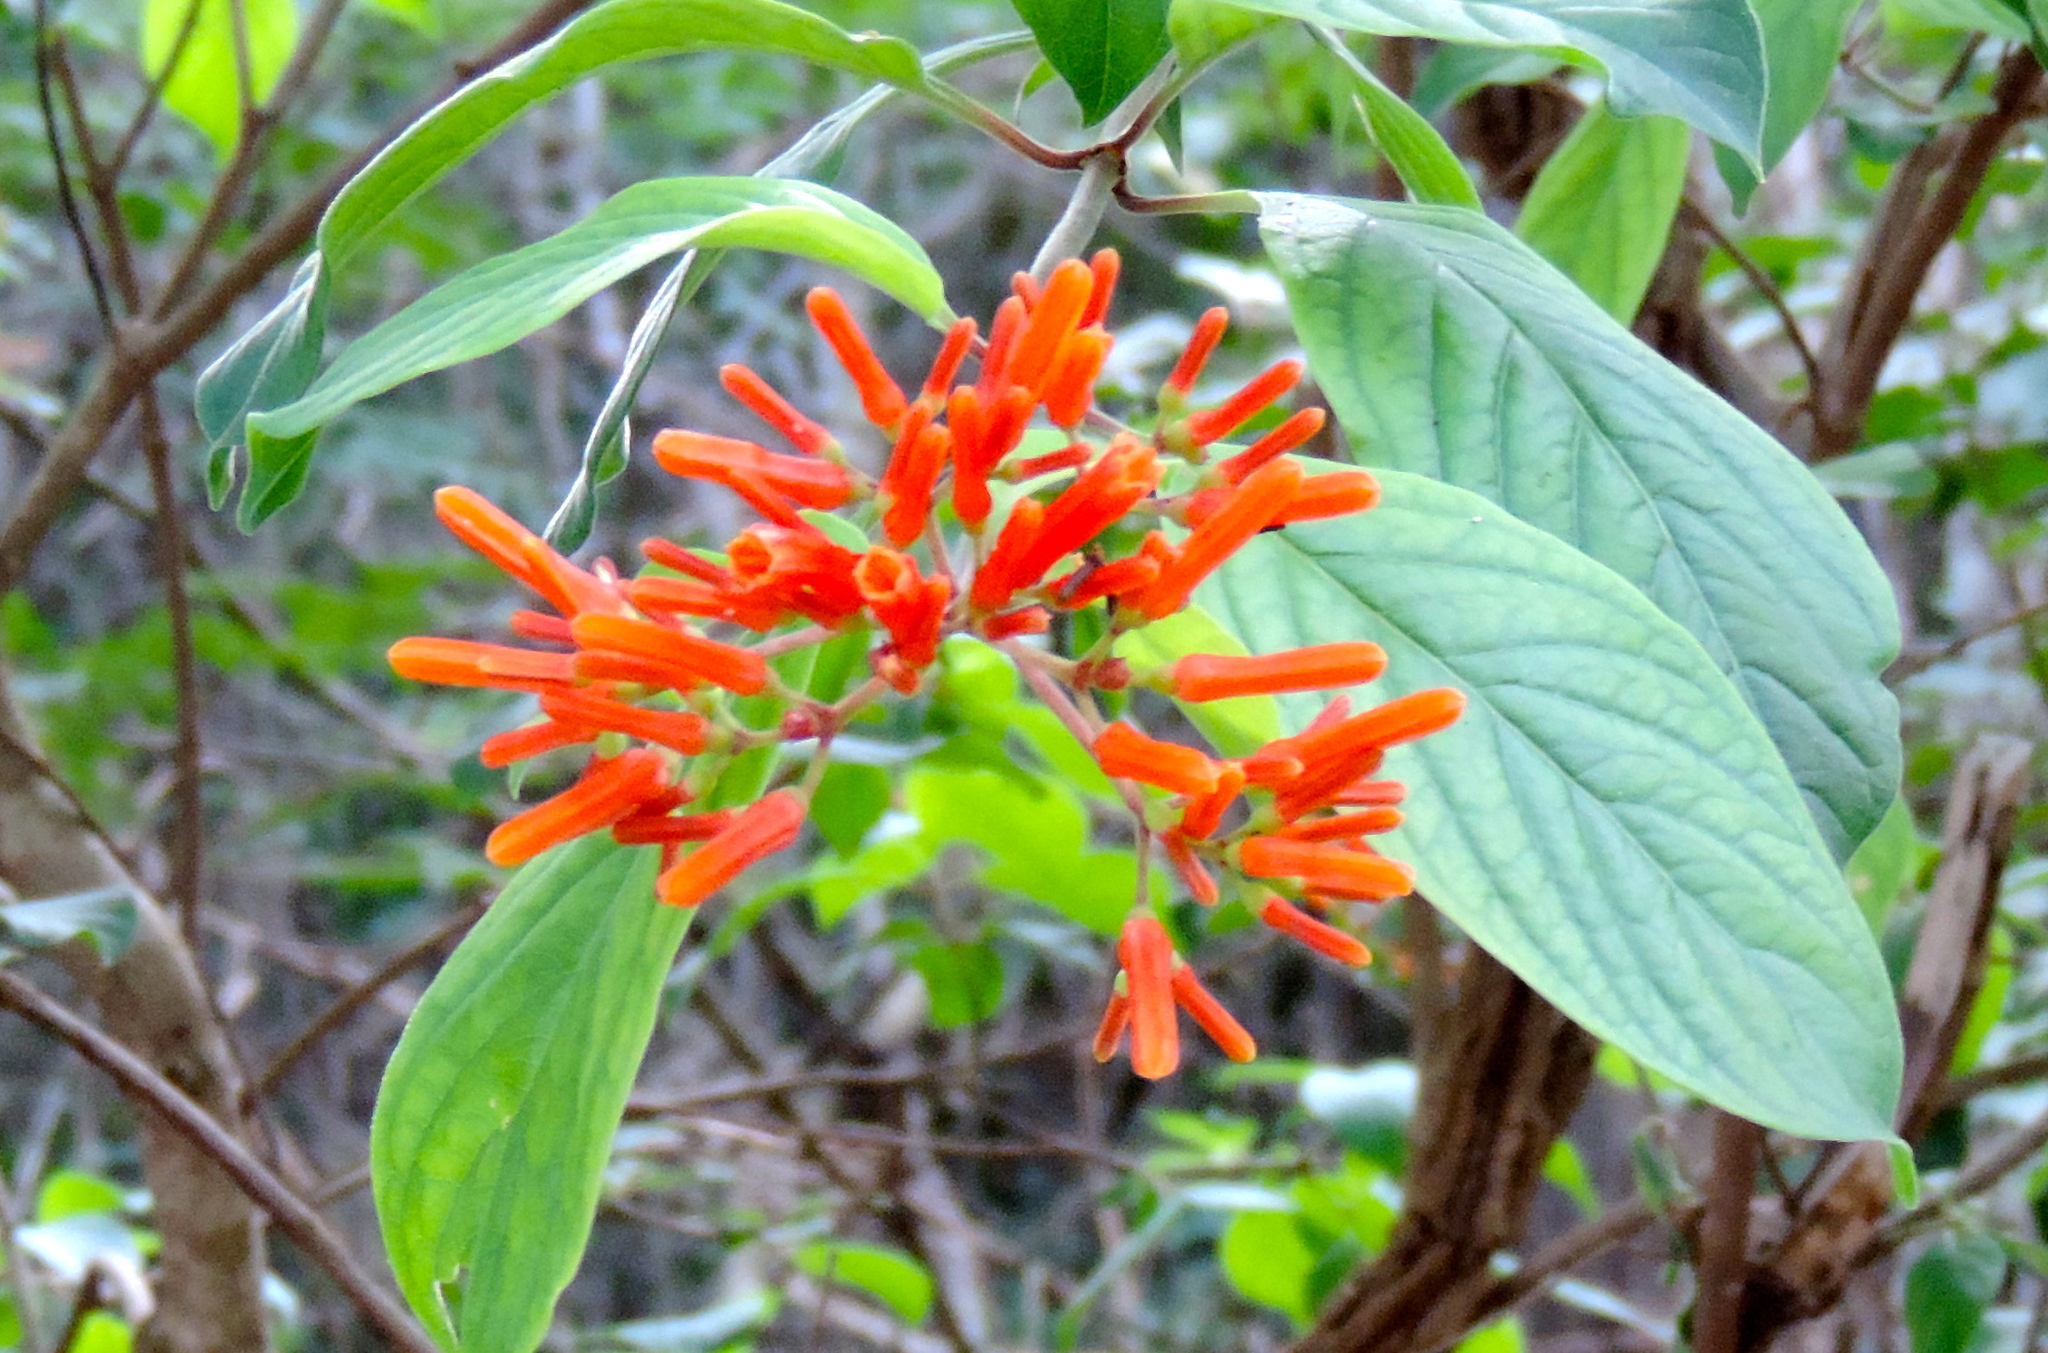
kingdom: Plantae
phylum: Tracheophyta
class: Magnoliopsida
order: Gentianales
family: Rubiaceae
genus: Hamelia
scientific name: Hamelia patens
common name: Redhead
